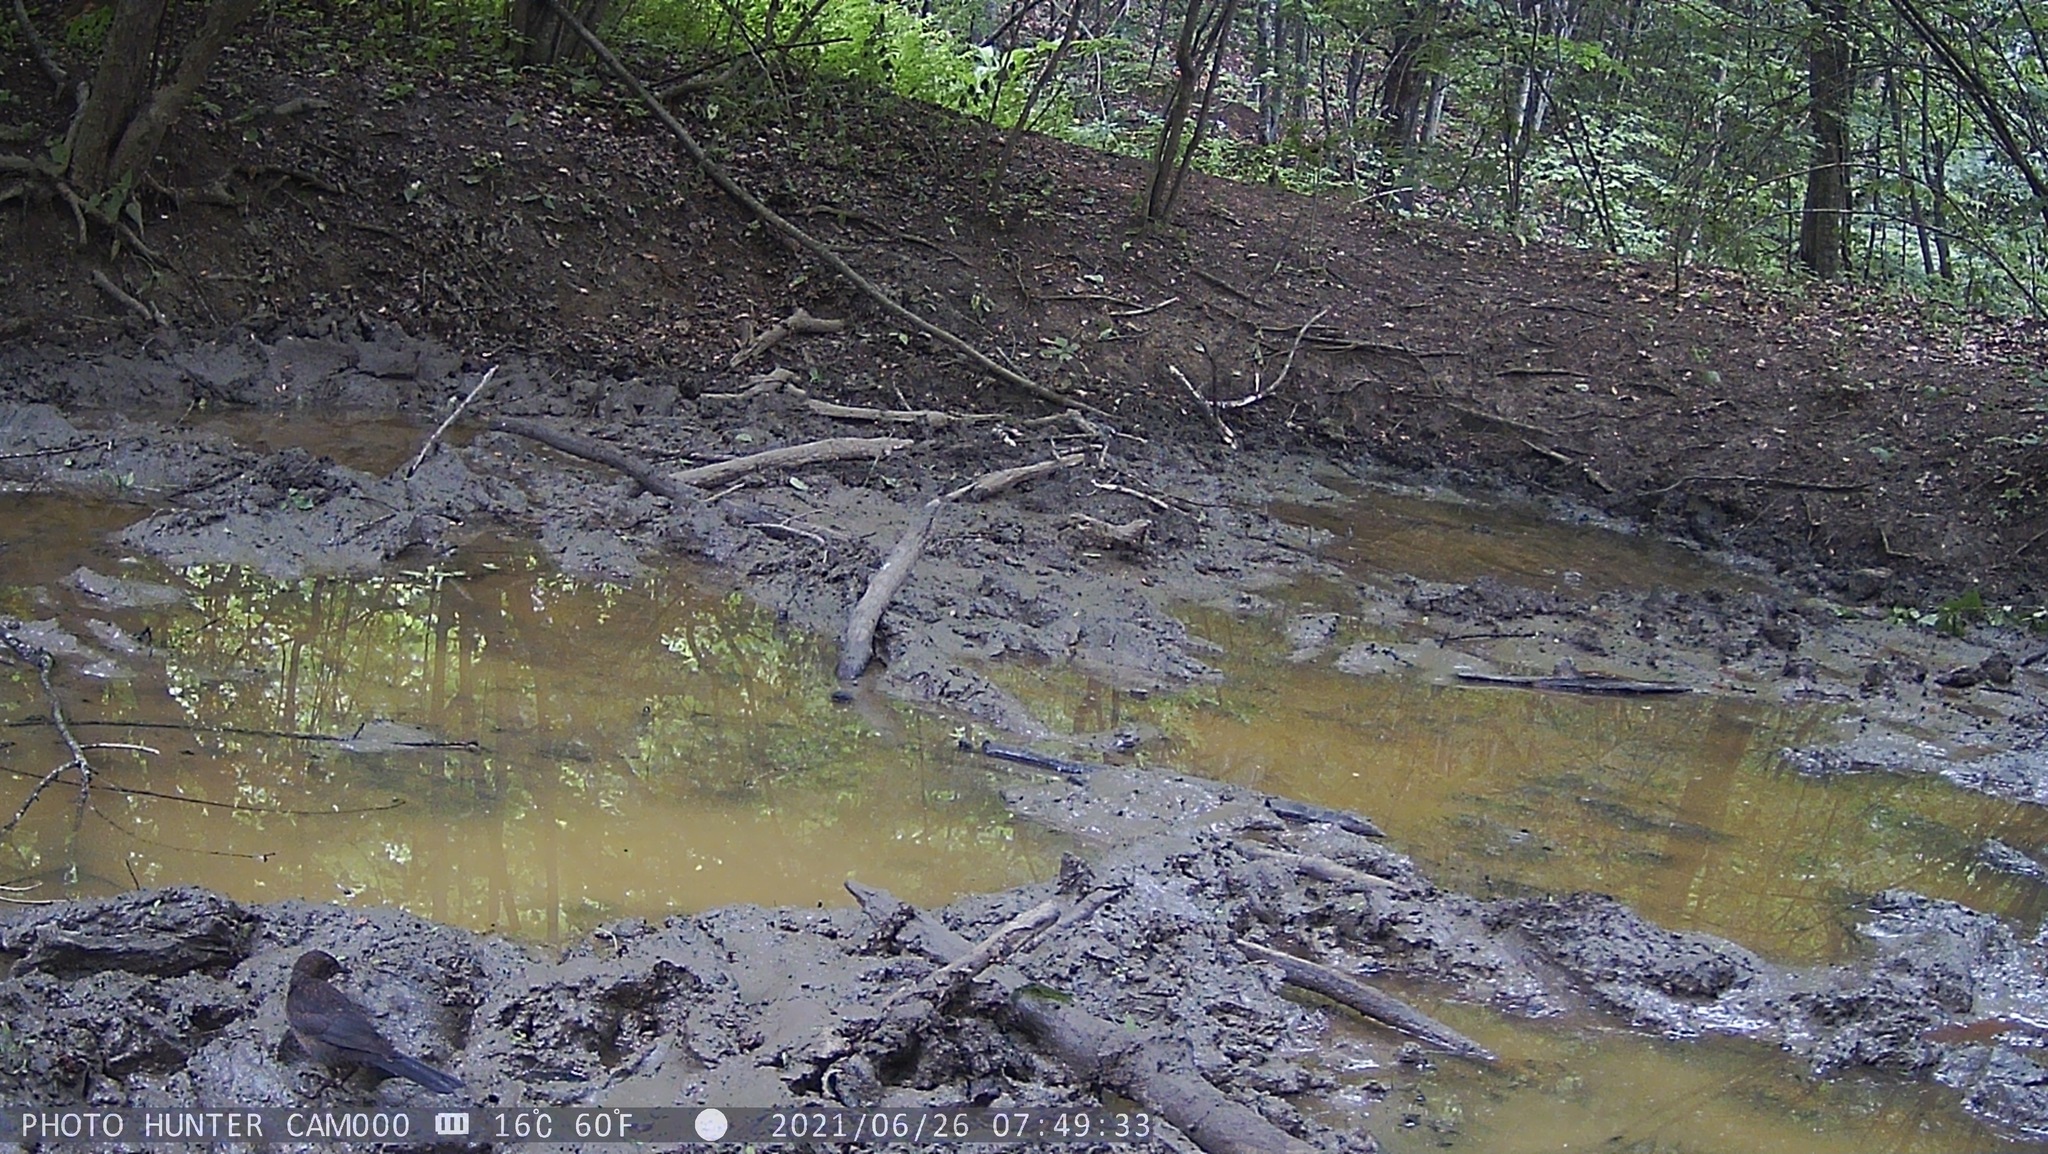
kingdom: Animalia
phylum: Chordata
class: Aves
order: Passeriformes
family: Turdidae
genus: Turdus
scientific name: Turdus merula
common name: Common blackbird
